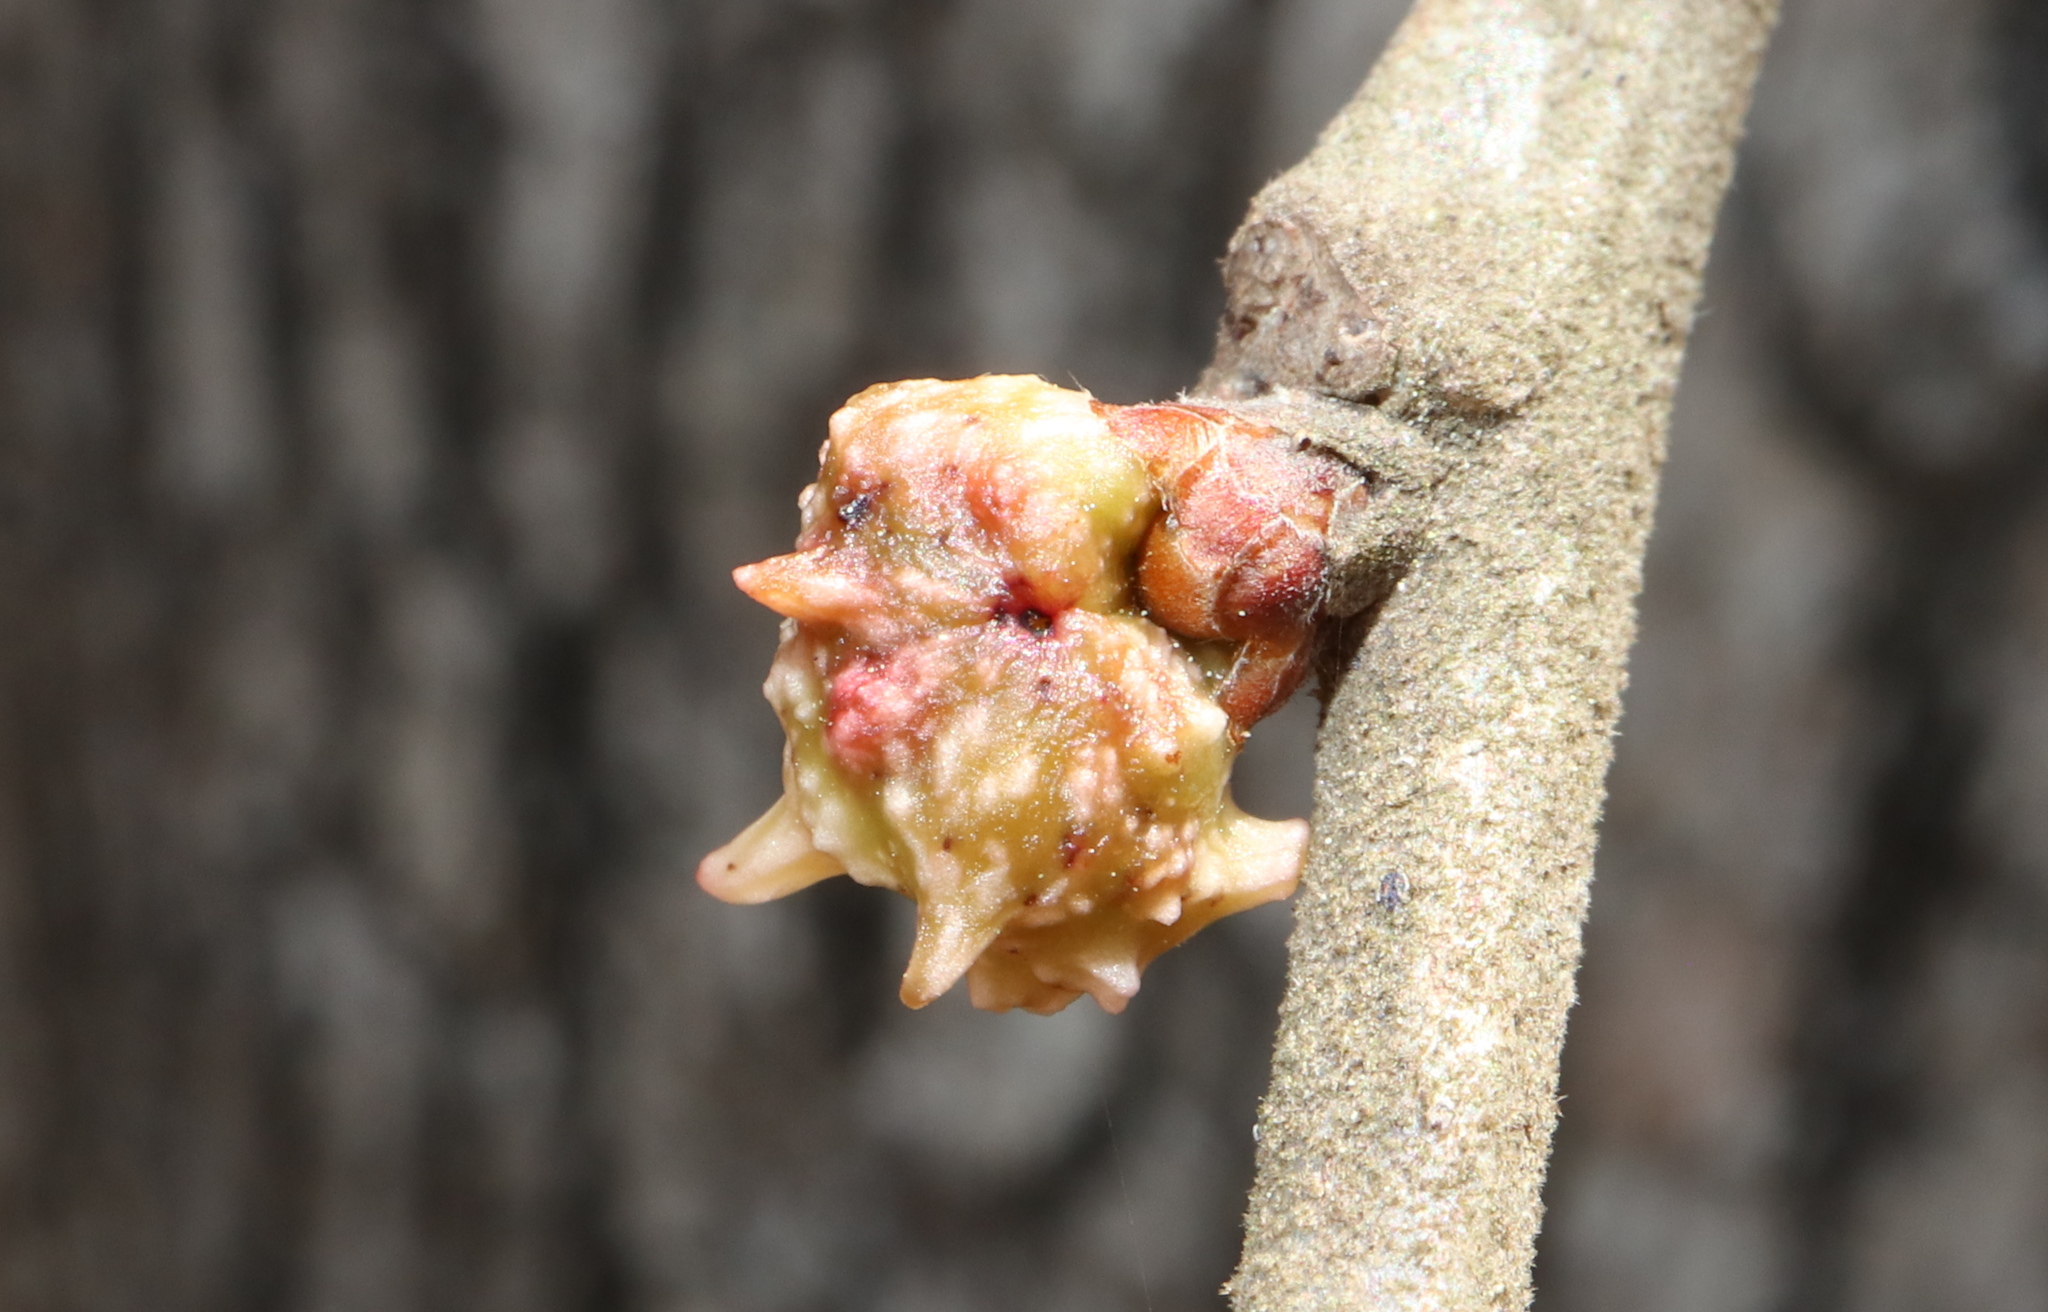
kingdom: Animalia
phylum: Arthropoda
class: Insecta
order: Hymenoptera
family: Cynipidae
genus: Andricus
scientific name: Andricus
